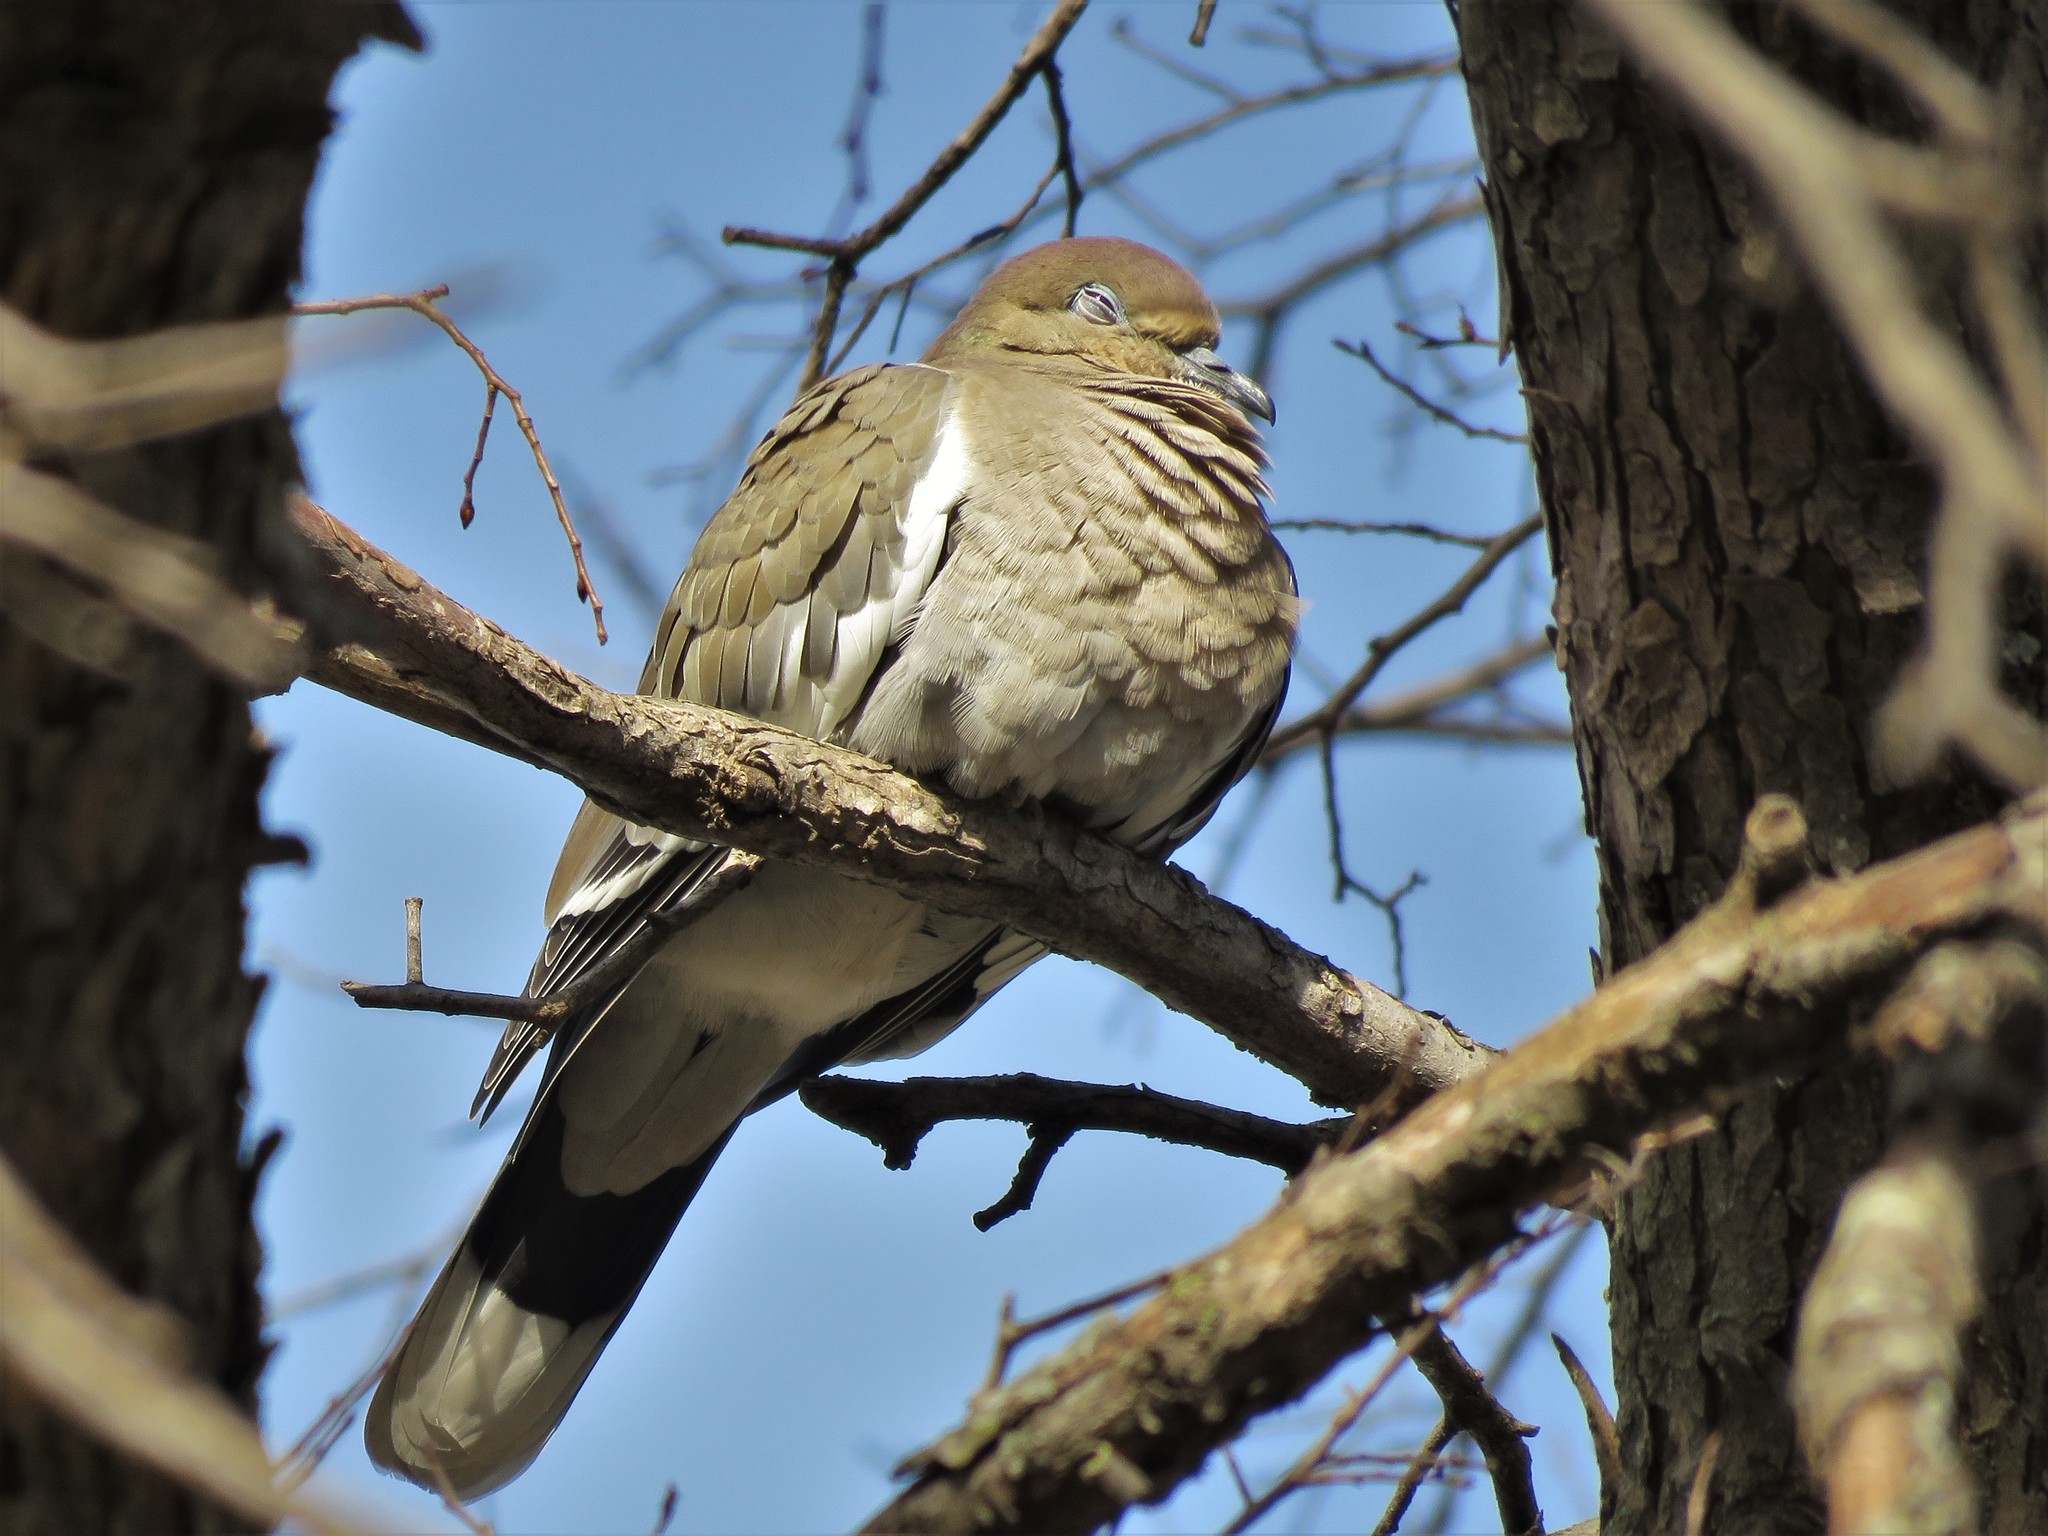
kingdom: Animalia
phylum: Chordata
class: Aves
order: Columbiformes
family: Columbidae
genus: Zenaida
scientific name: Zenaida asiatica
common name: White-winged dove
